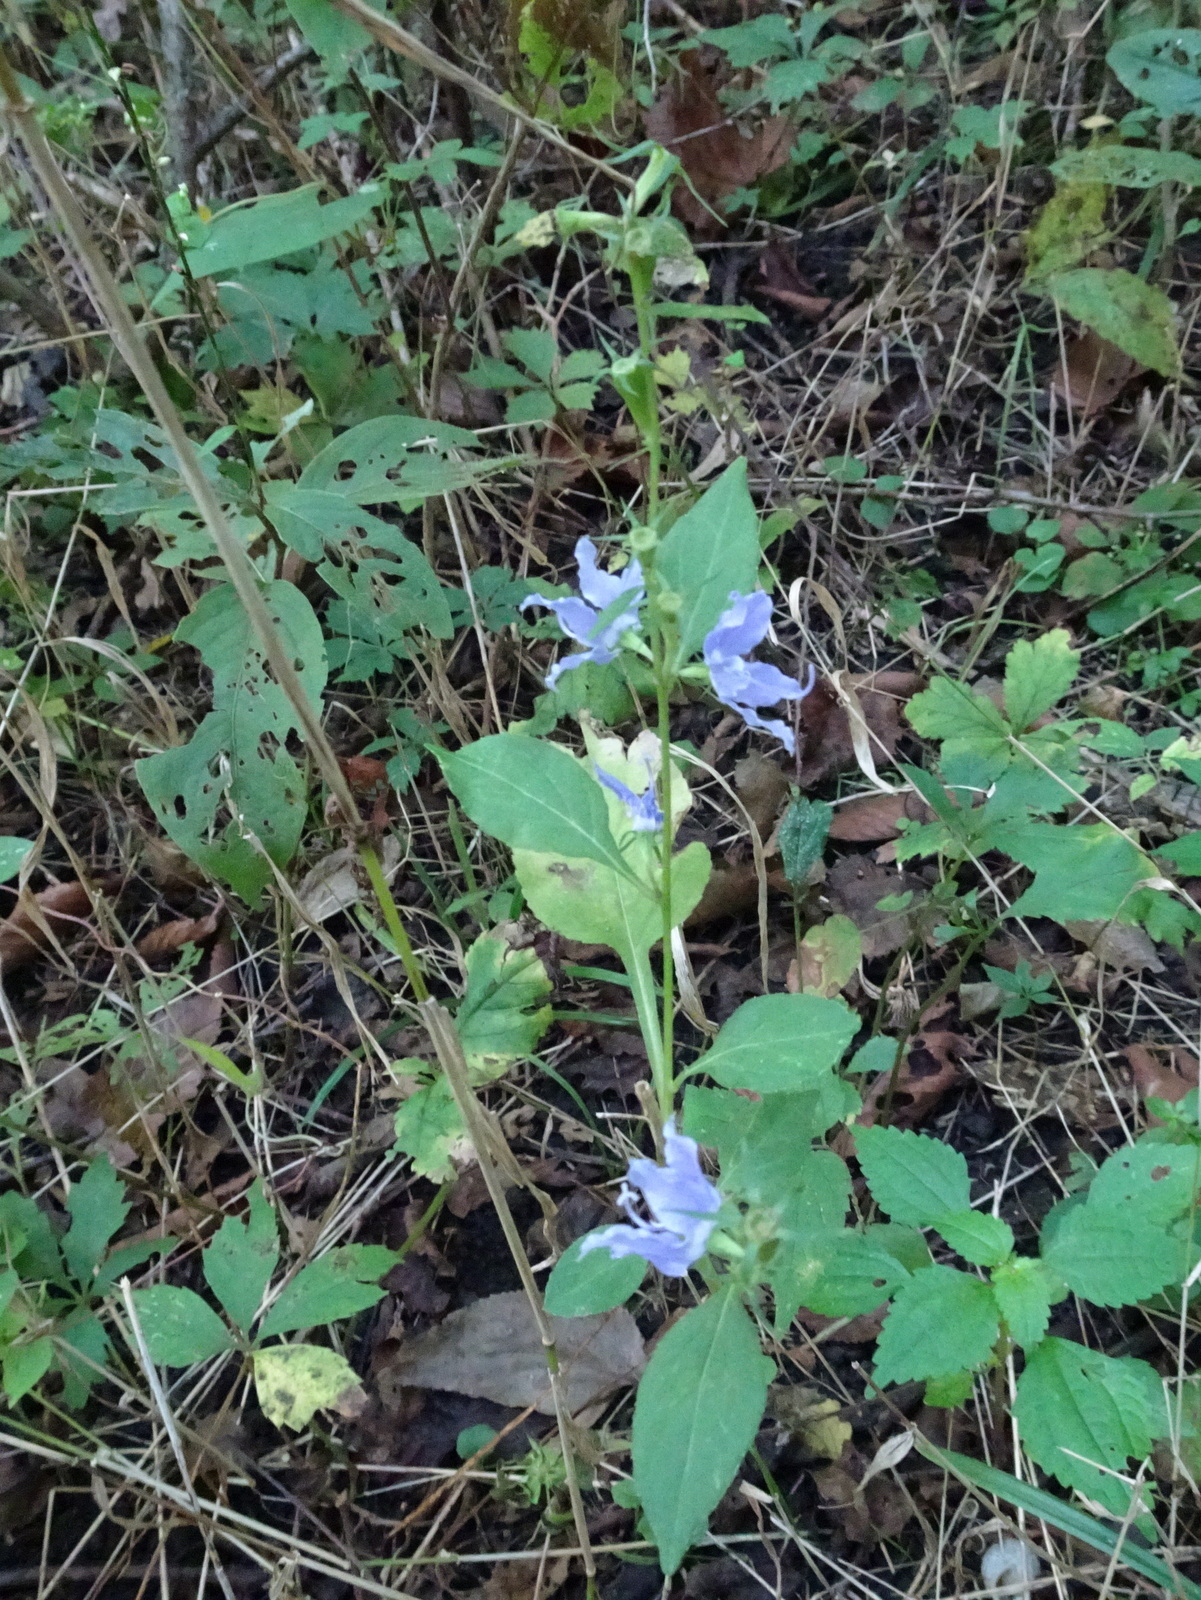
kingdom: Plantae
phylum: Tracheophyta
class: Magnoliopsida
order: Asterales
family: Campanulaceae
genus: Campanulastrum
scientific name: Campanulastrum americanum
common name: American bellflower
